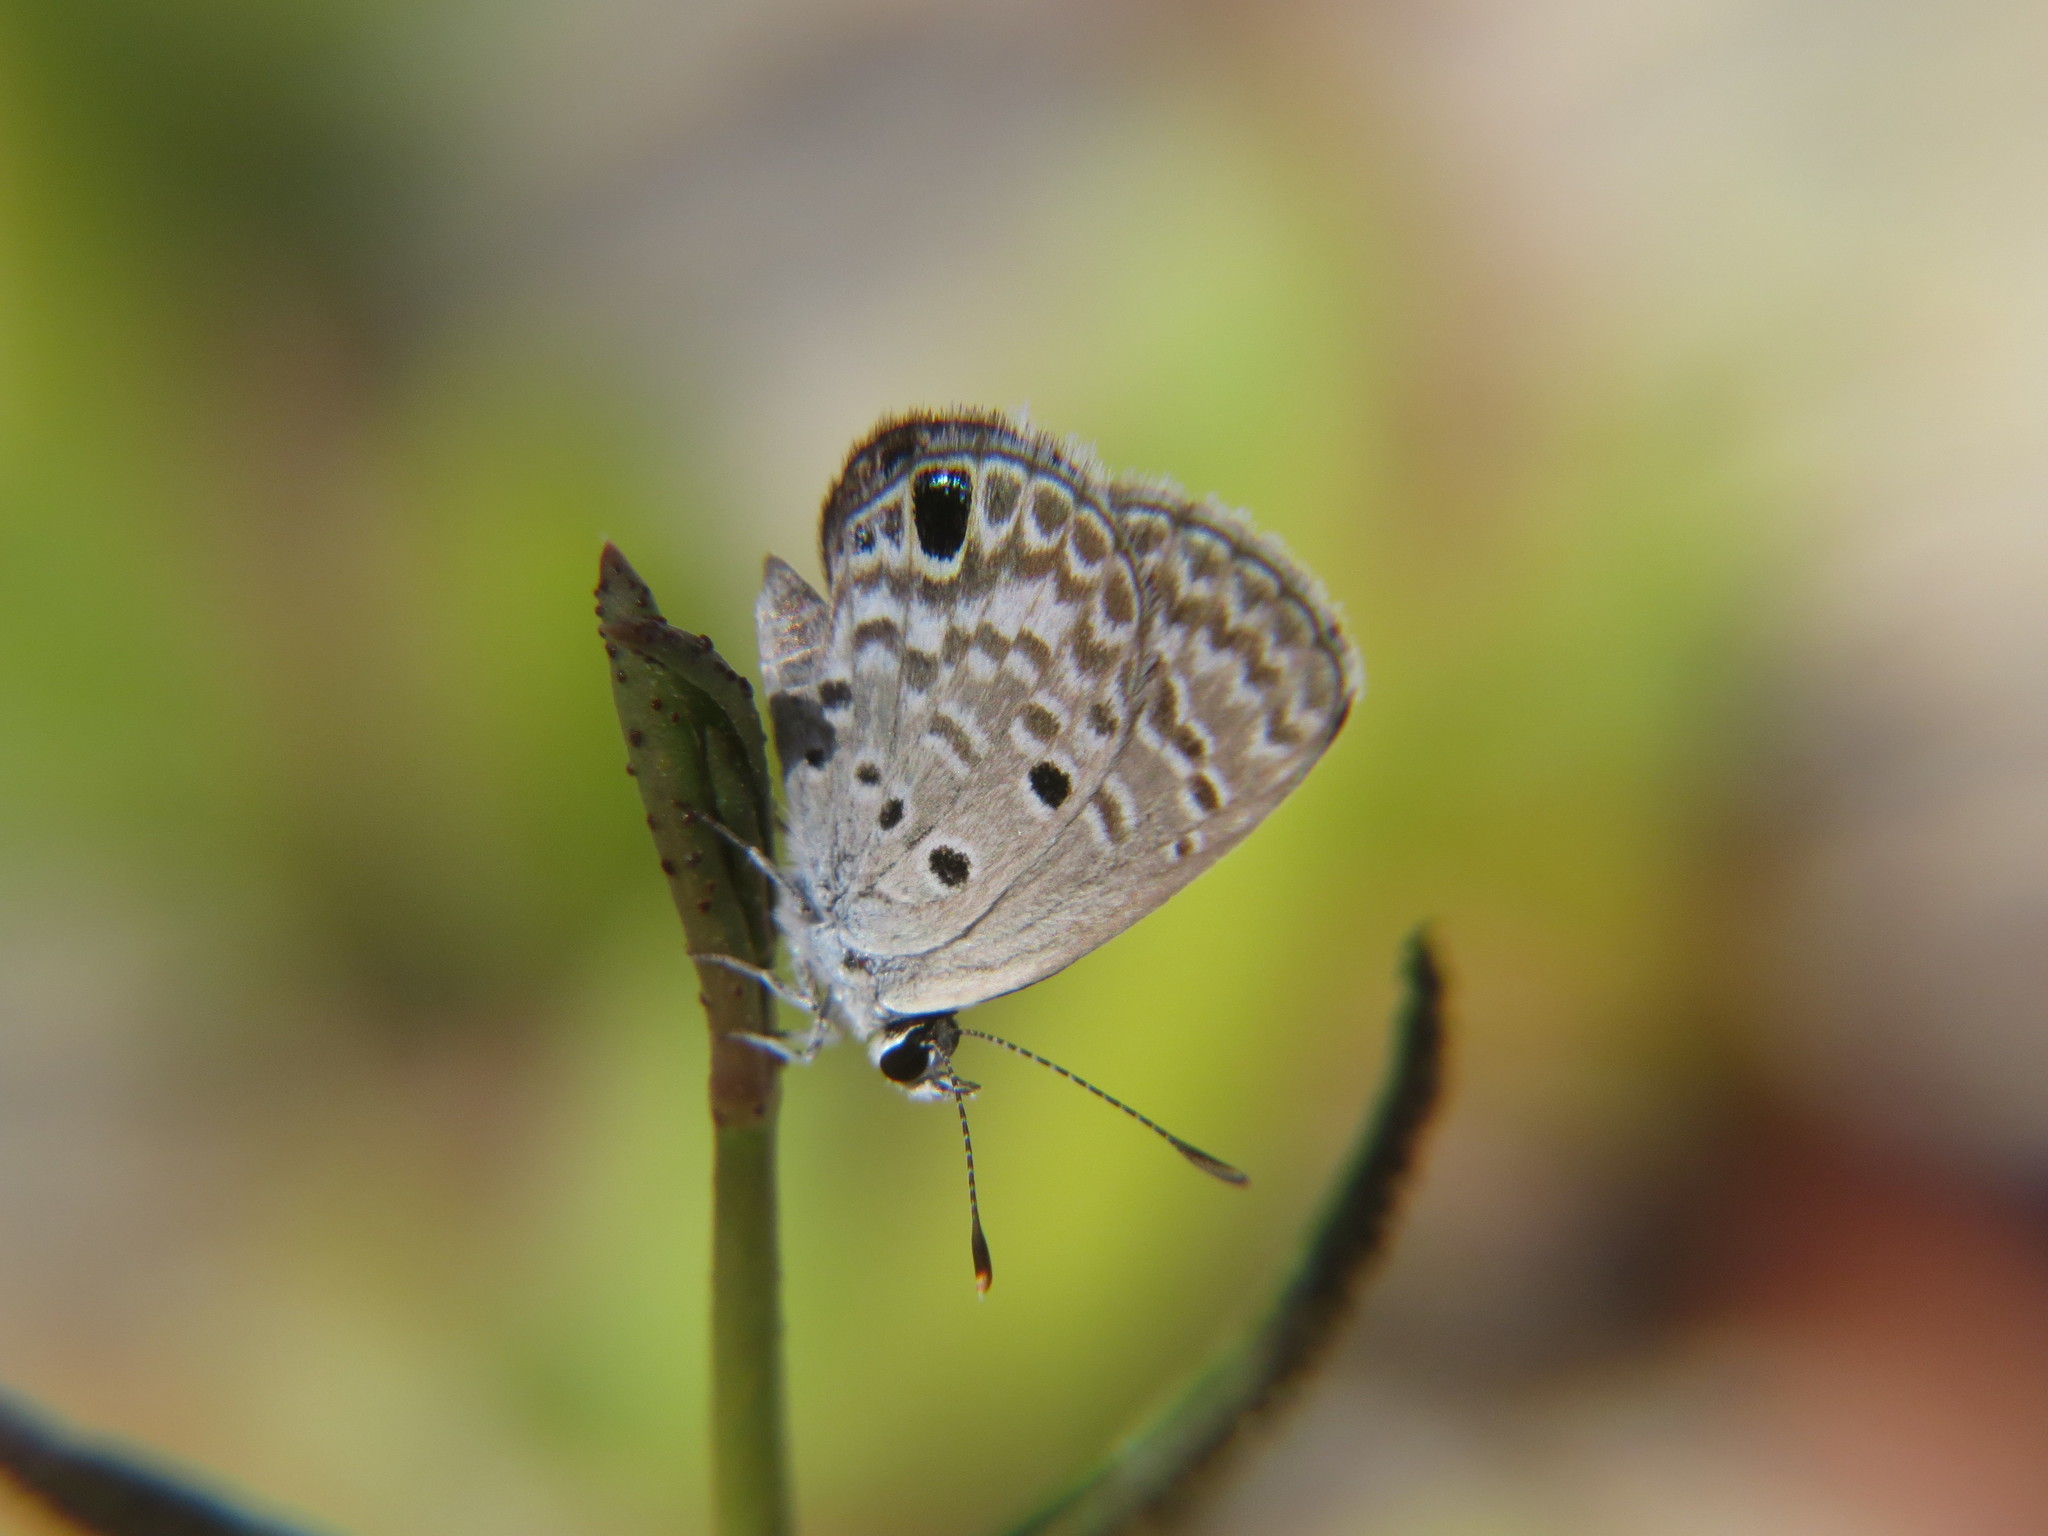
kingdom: Animalia
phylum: Arthropoda
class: Insecta
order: Lepidoptera
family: Lycaenidae
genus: Hemiargus
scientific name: Hemiargus ceraunus
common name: Ceraunus blue
